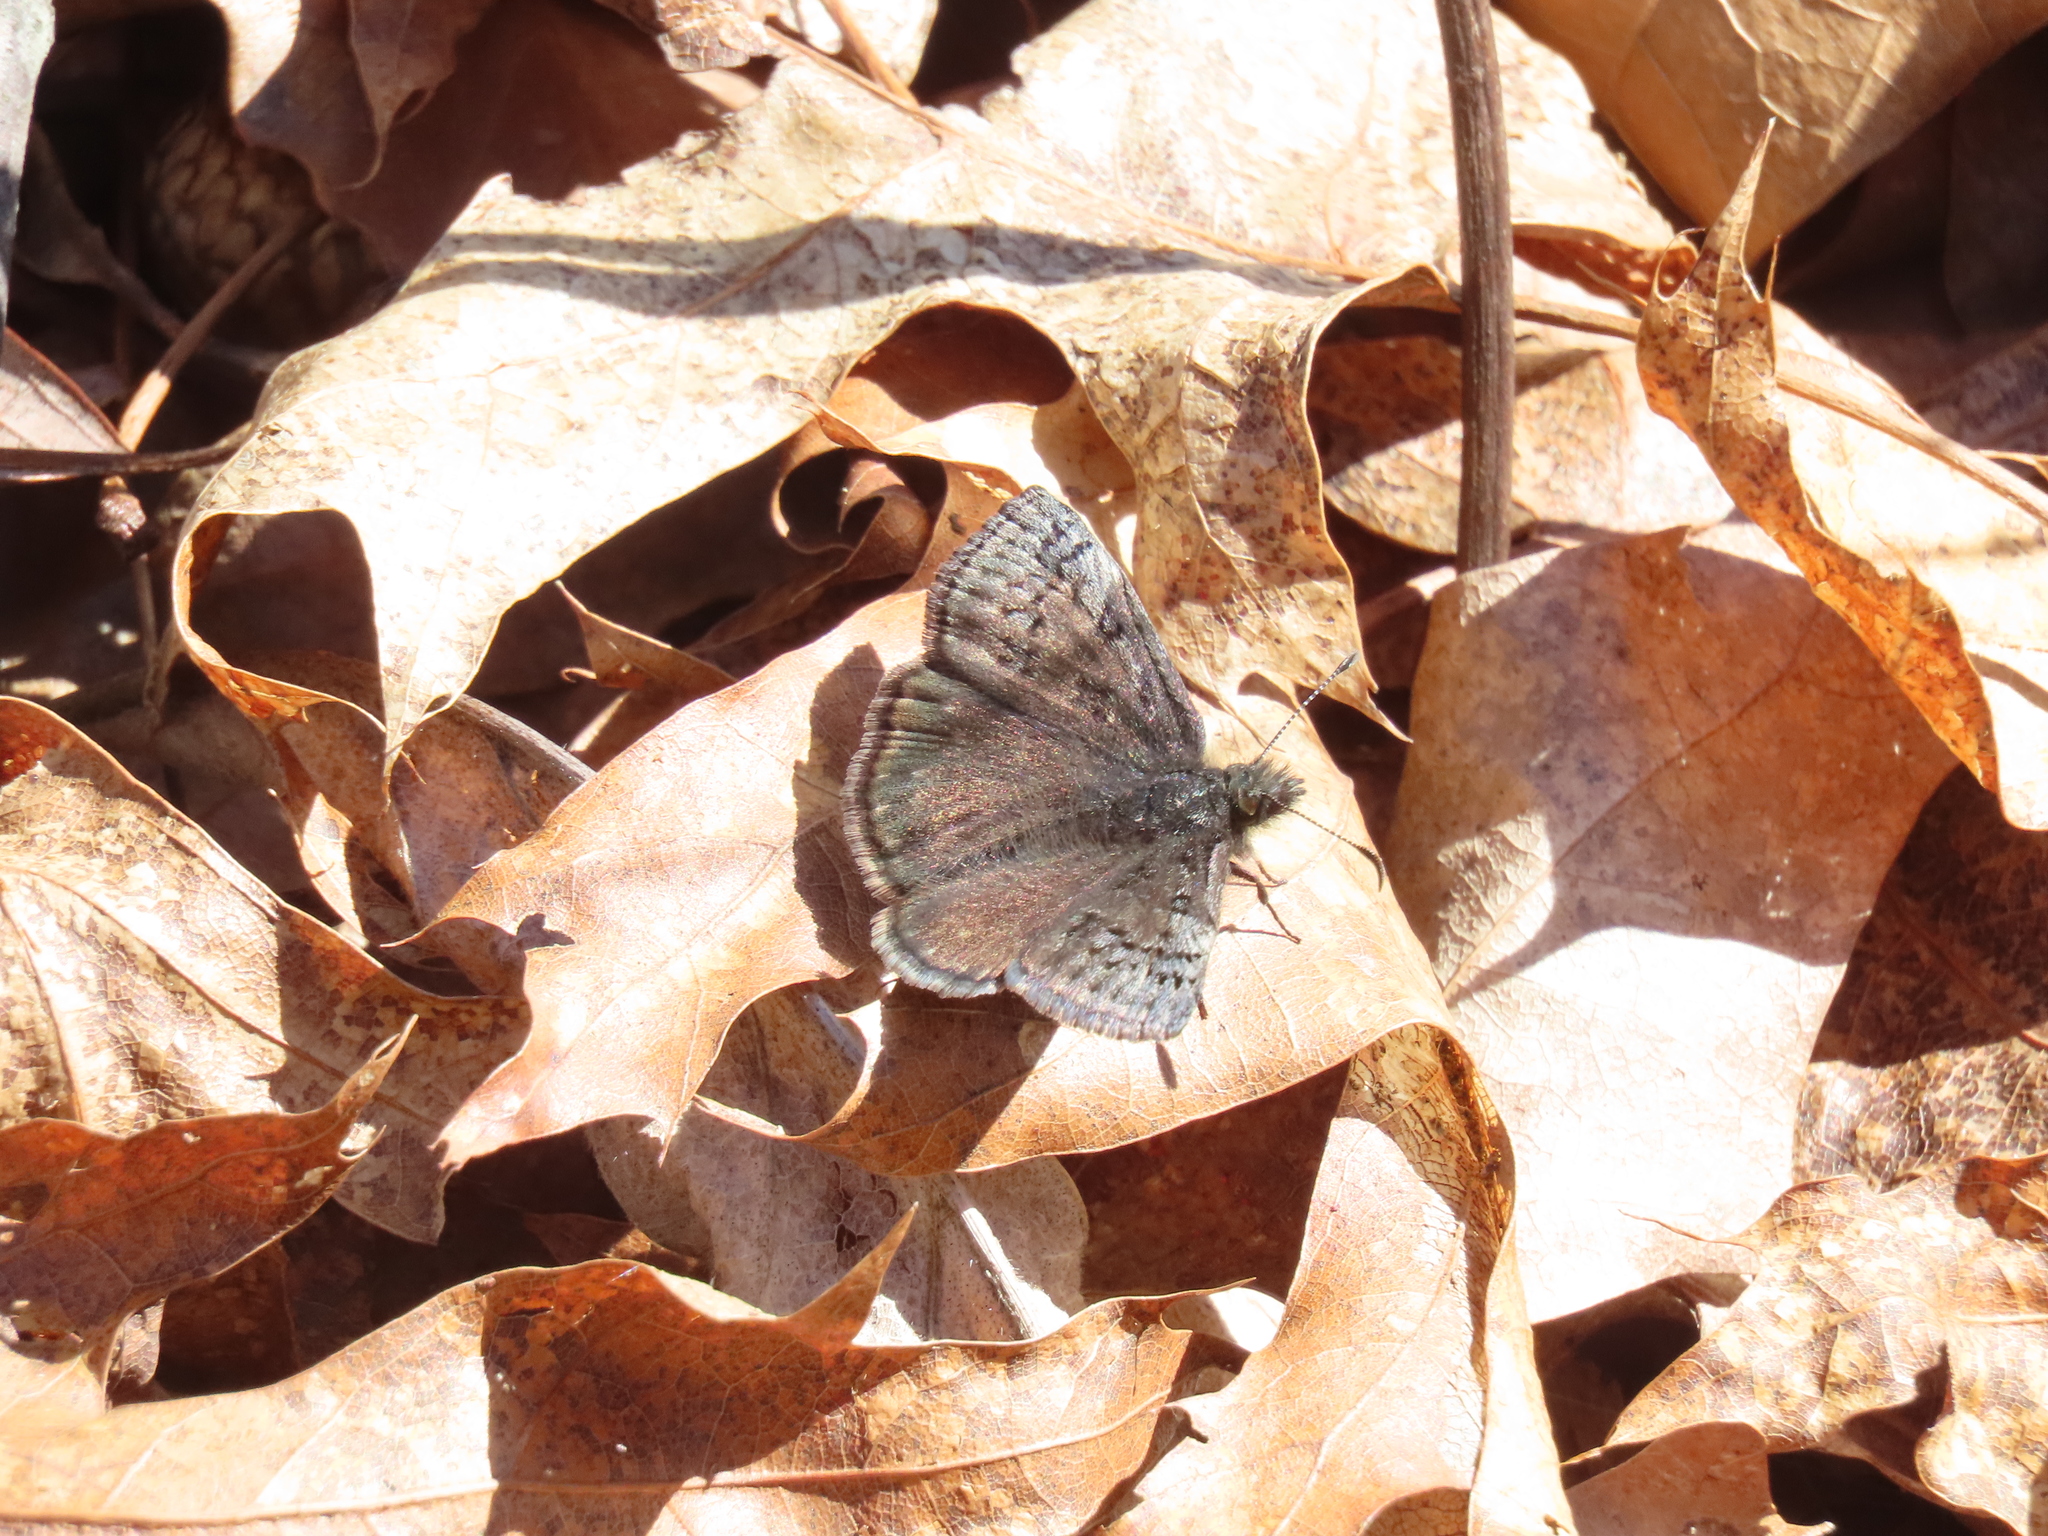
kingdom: Animalia
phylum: Arthropoda
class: Insecta
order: Lepidoptera
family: Hesperiidae
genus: Erynnis
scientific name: Erynnis icelus
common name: Dreamy duskywing
